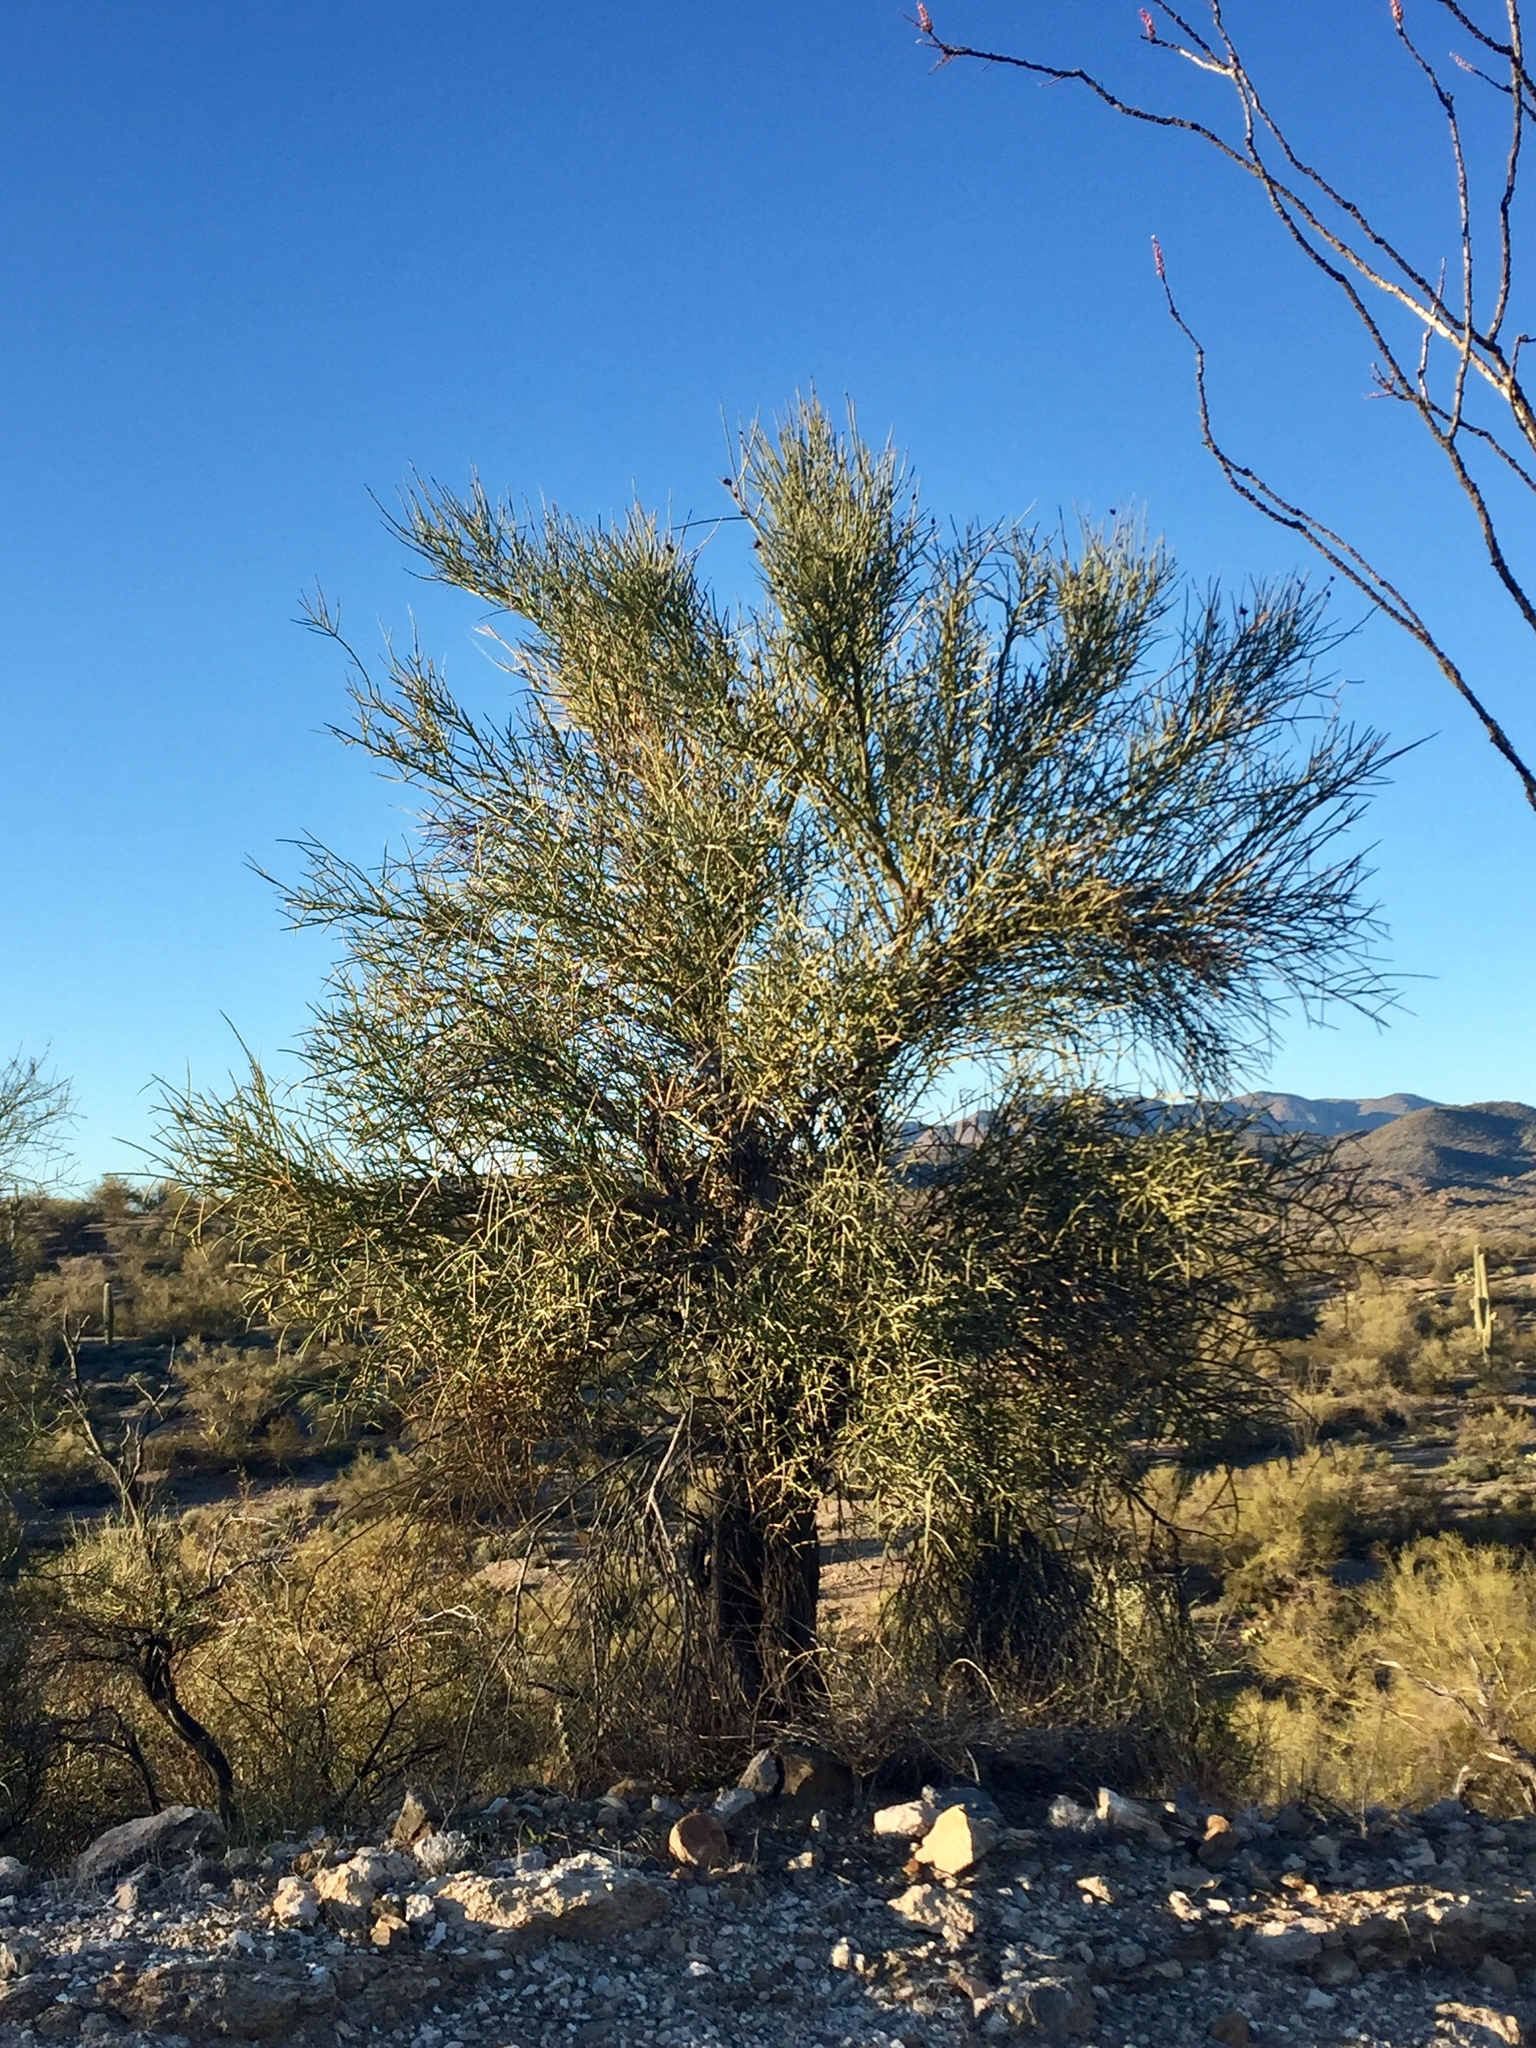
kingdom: Plantae
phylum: Tracheophyta
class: Magnoliopsida
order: Celastrales
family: Celastraceae
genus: Canotia
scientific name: Canotia holacantha
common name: Crucifixion thorns
